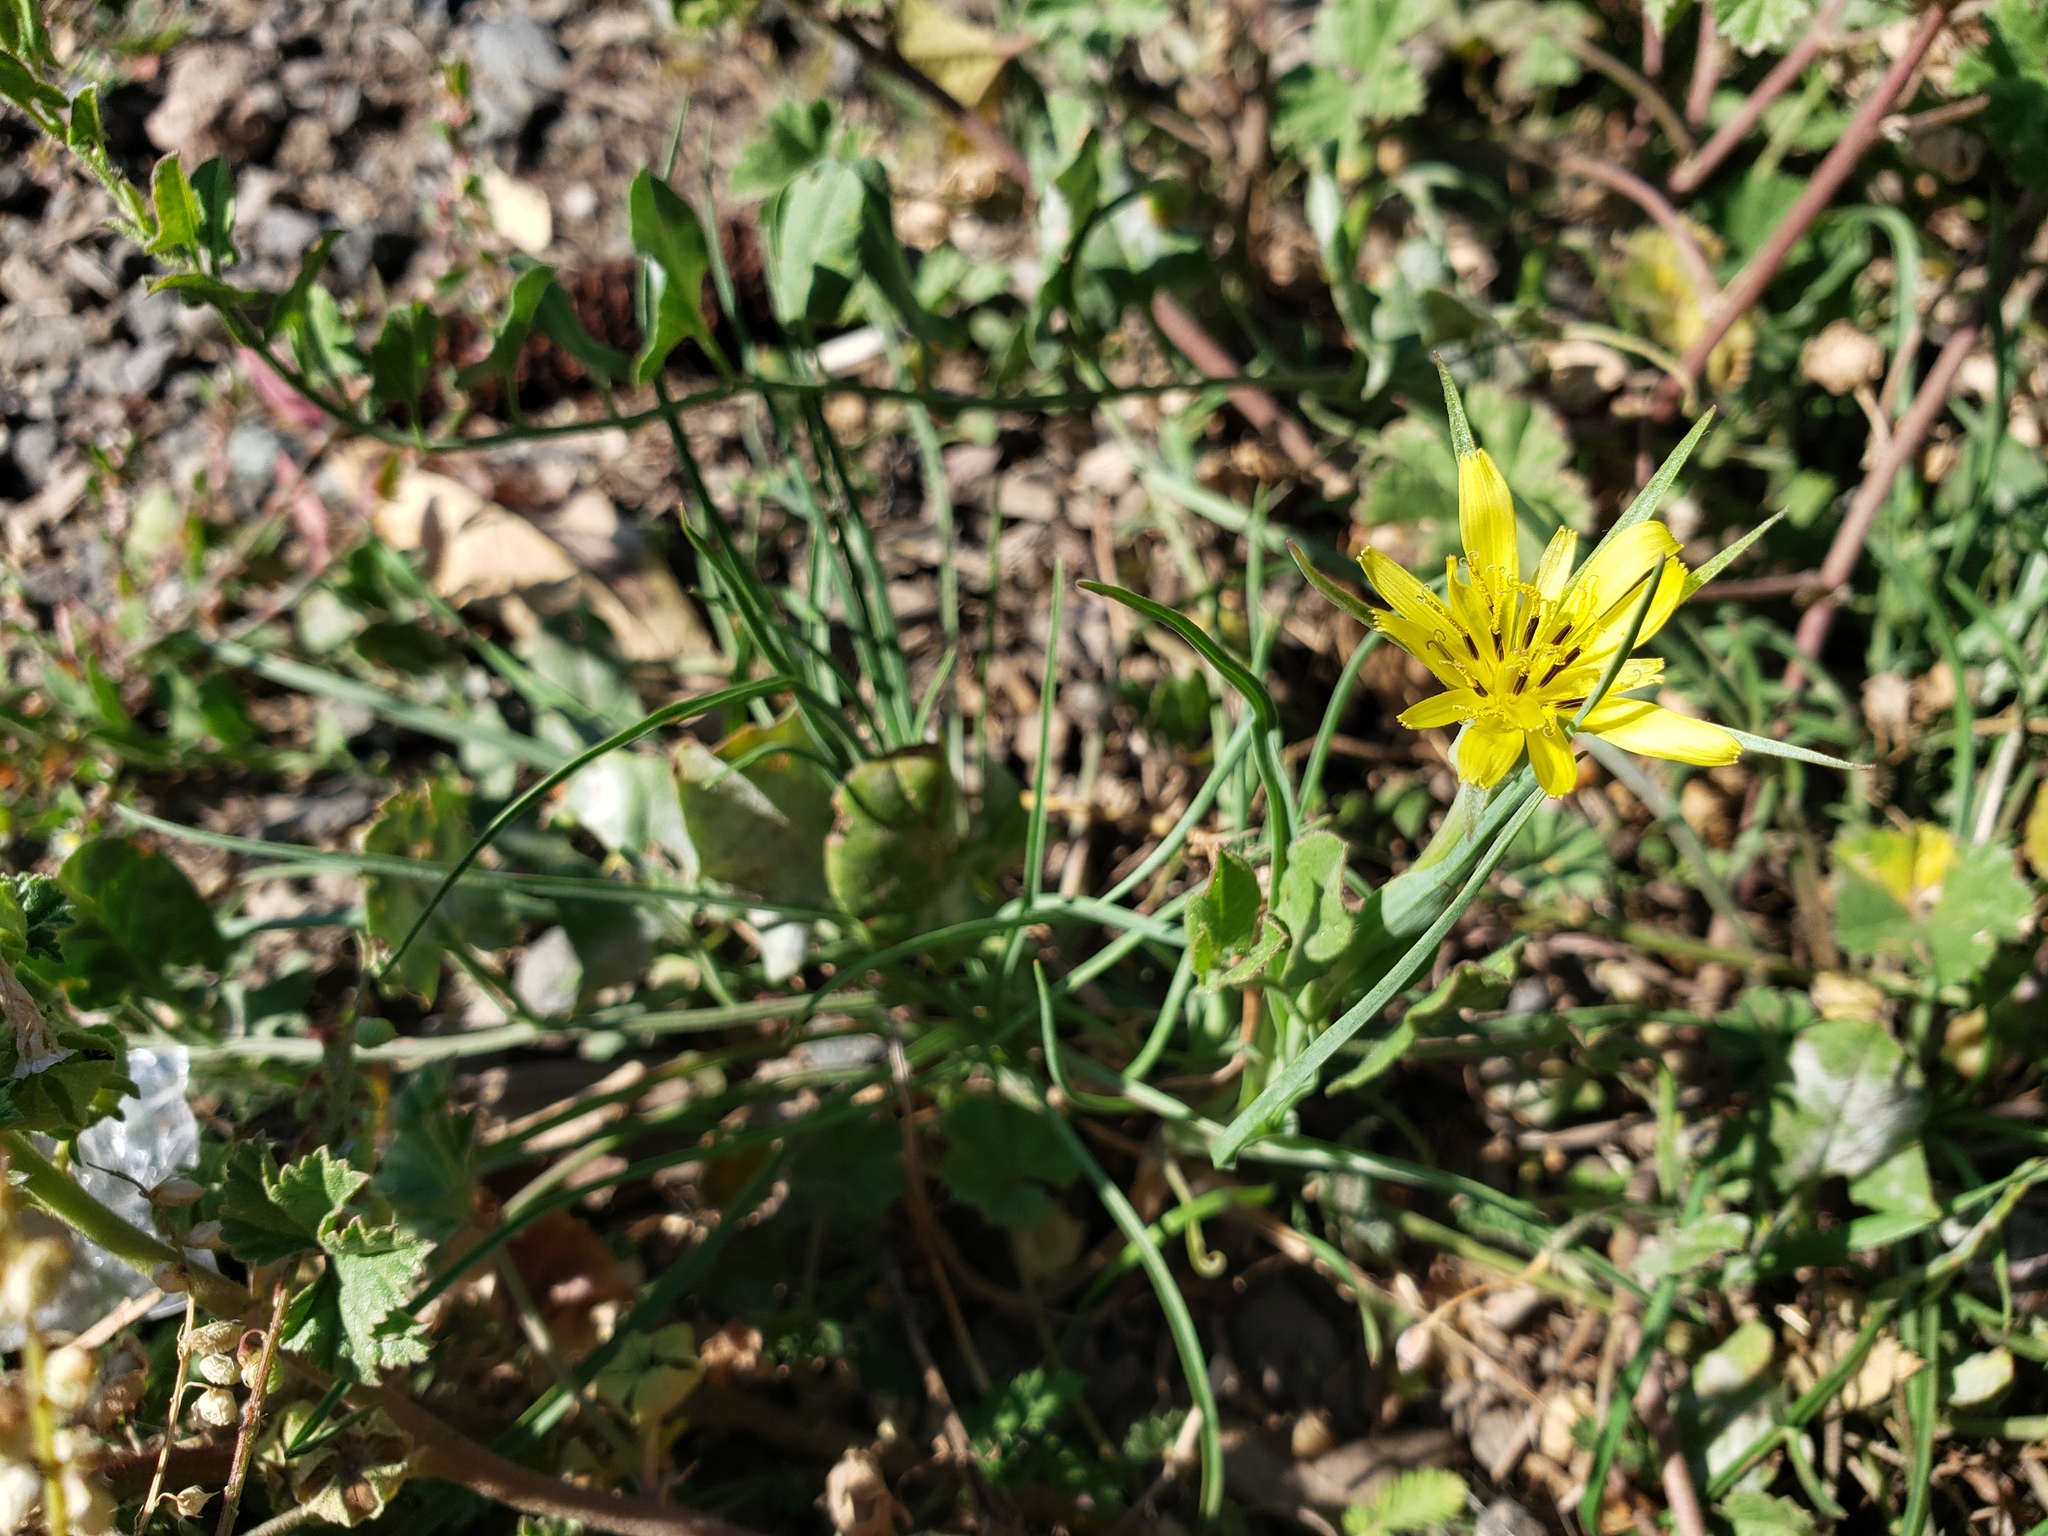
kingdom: Plantae
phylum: Tracheophyta
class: Magnoliopsida
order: Asterales
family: Asteraceae
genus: Tragopogon
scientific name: Tragopogon dubius
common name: Yellow salsify
